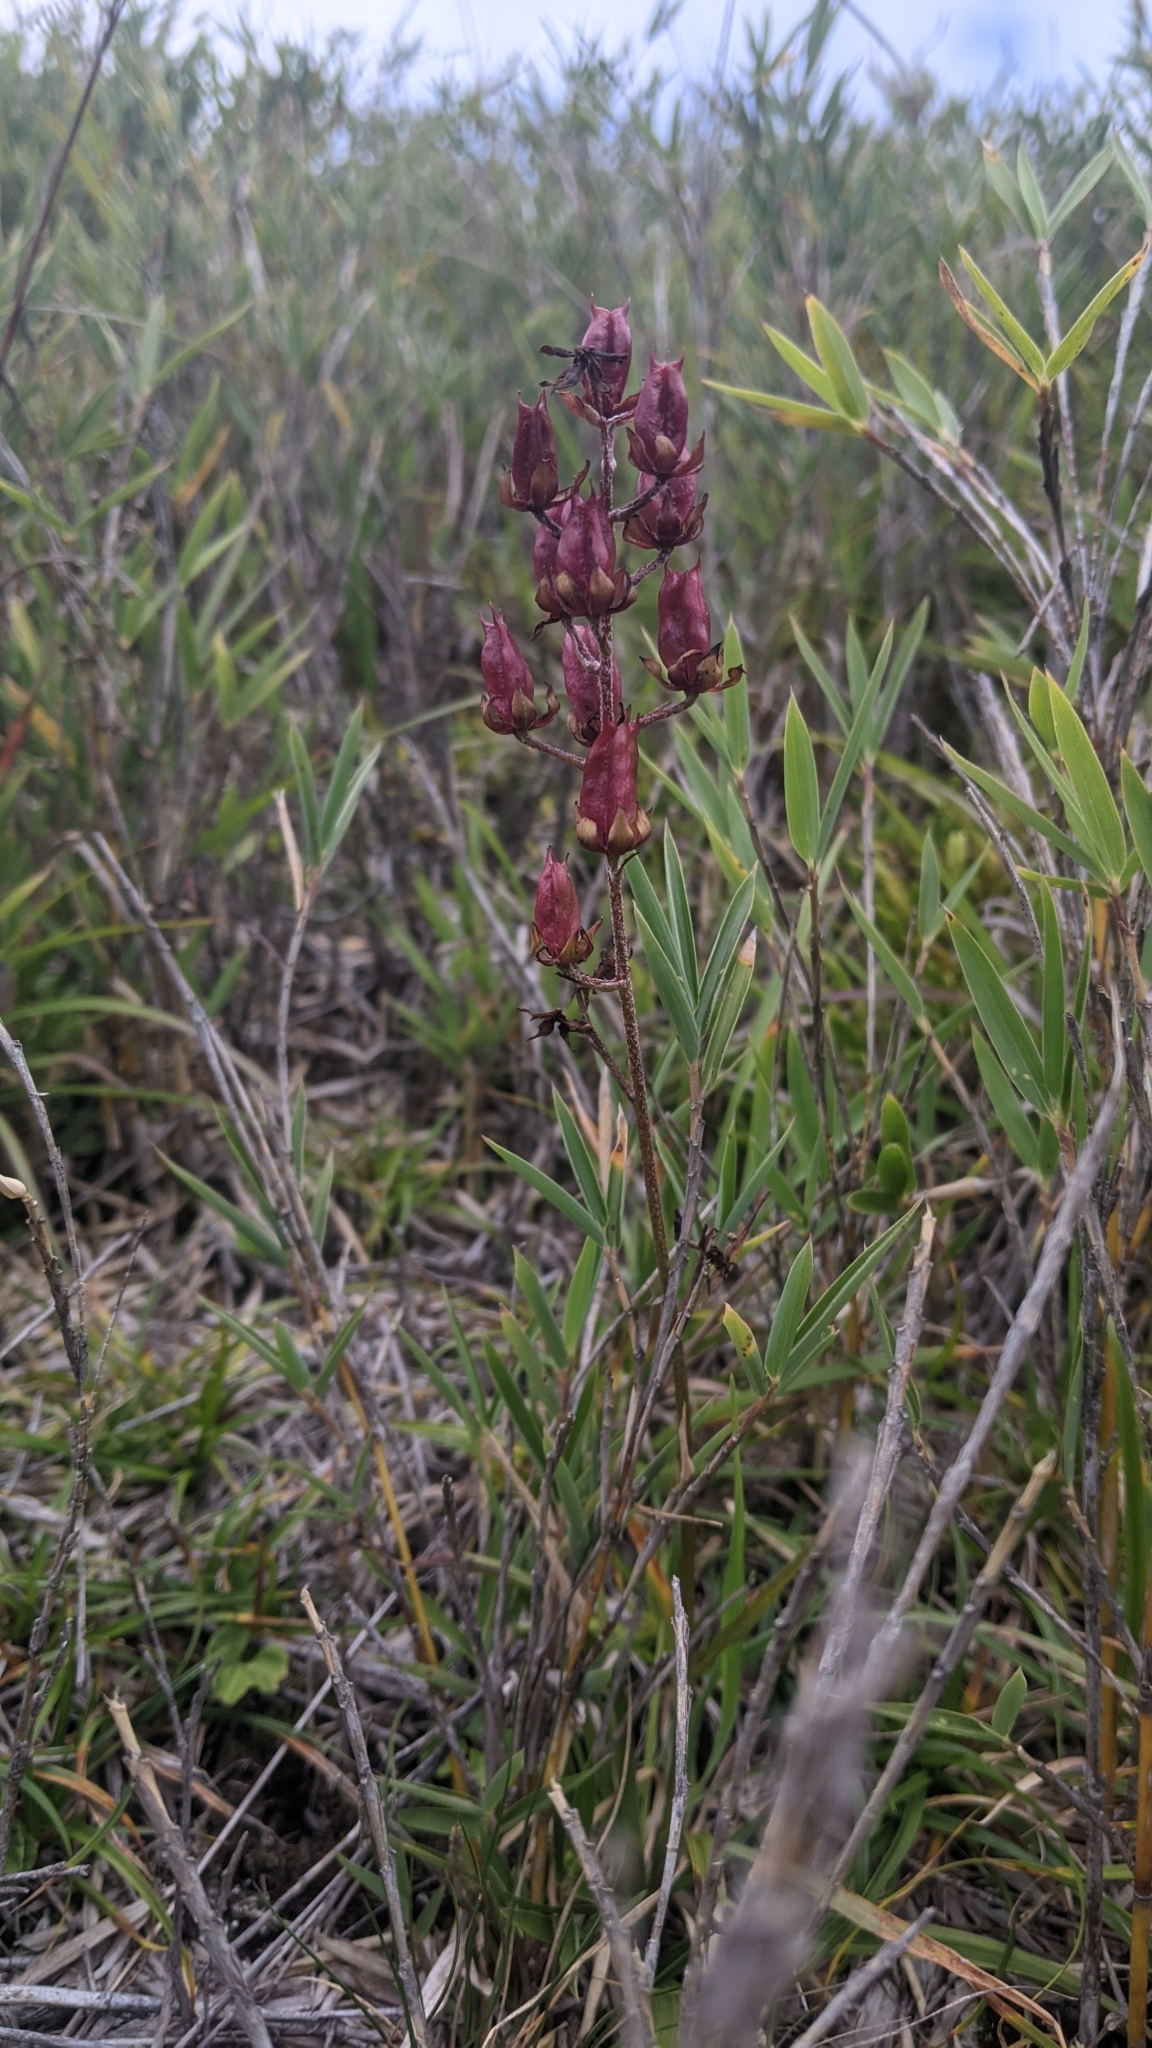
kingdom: Plantae
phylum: Tracheophyta
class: Liliopsida
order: Liliales
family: Melanthiaceae
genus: Veratrum
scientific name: Veratrum formosanum
